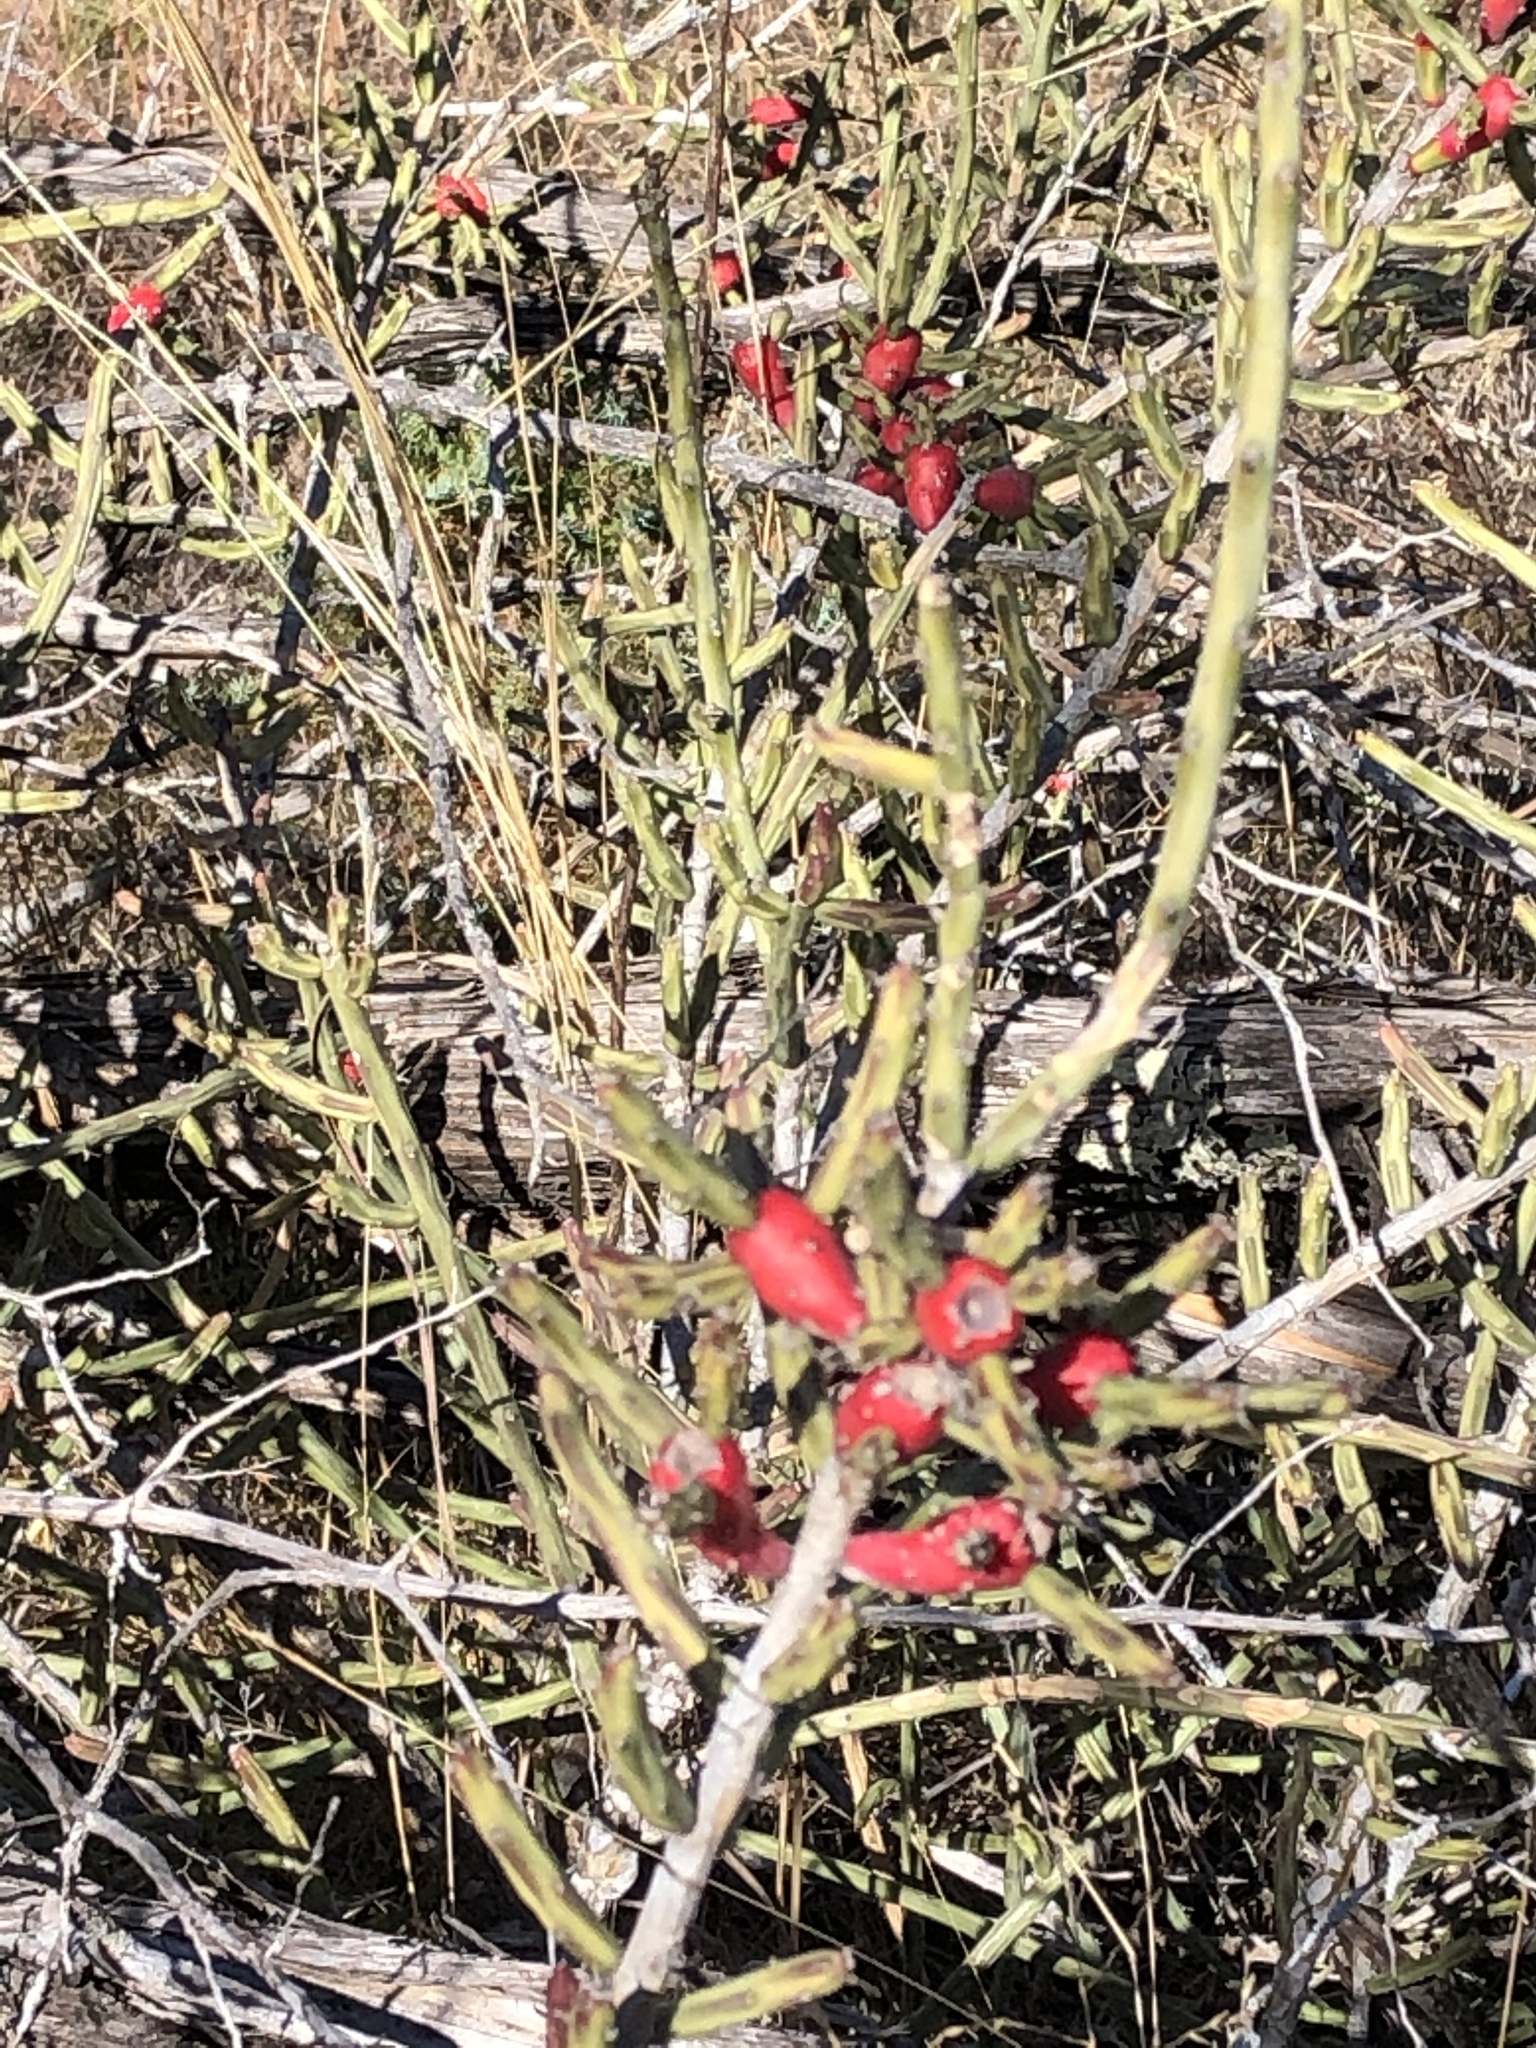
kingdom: Plantae
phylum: Tracheophyta
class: Magnoliopsida
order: Caryophyllales
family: Cactaceae
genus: Cylindropuntia
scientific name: Cylindropuntia leptocaulis
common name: Christmas cactus
